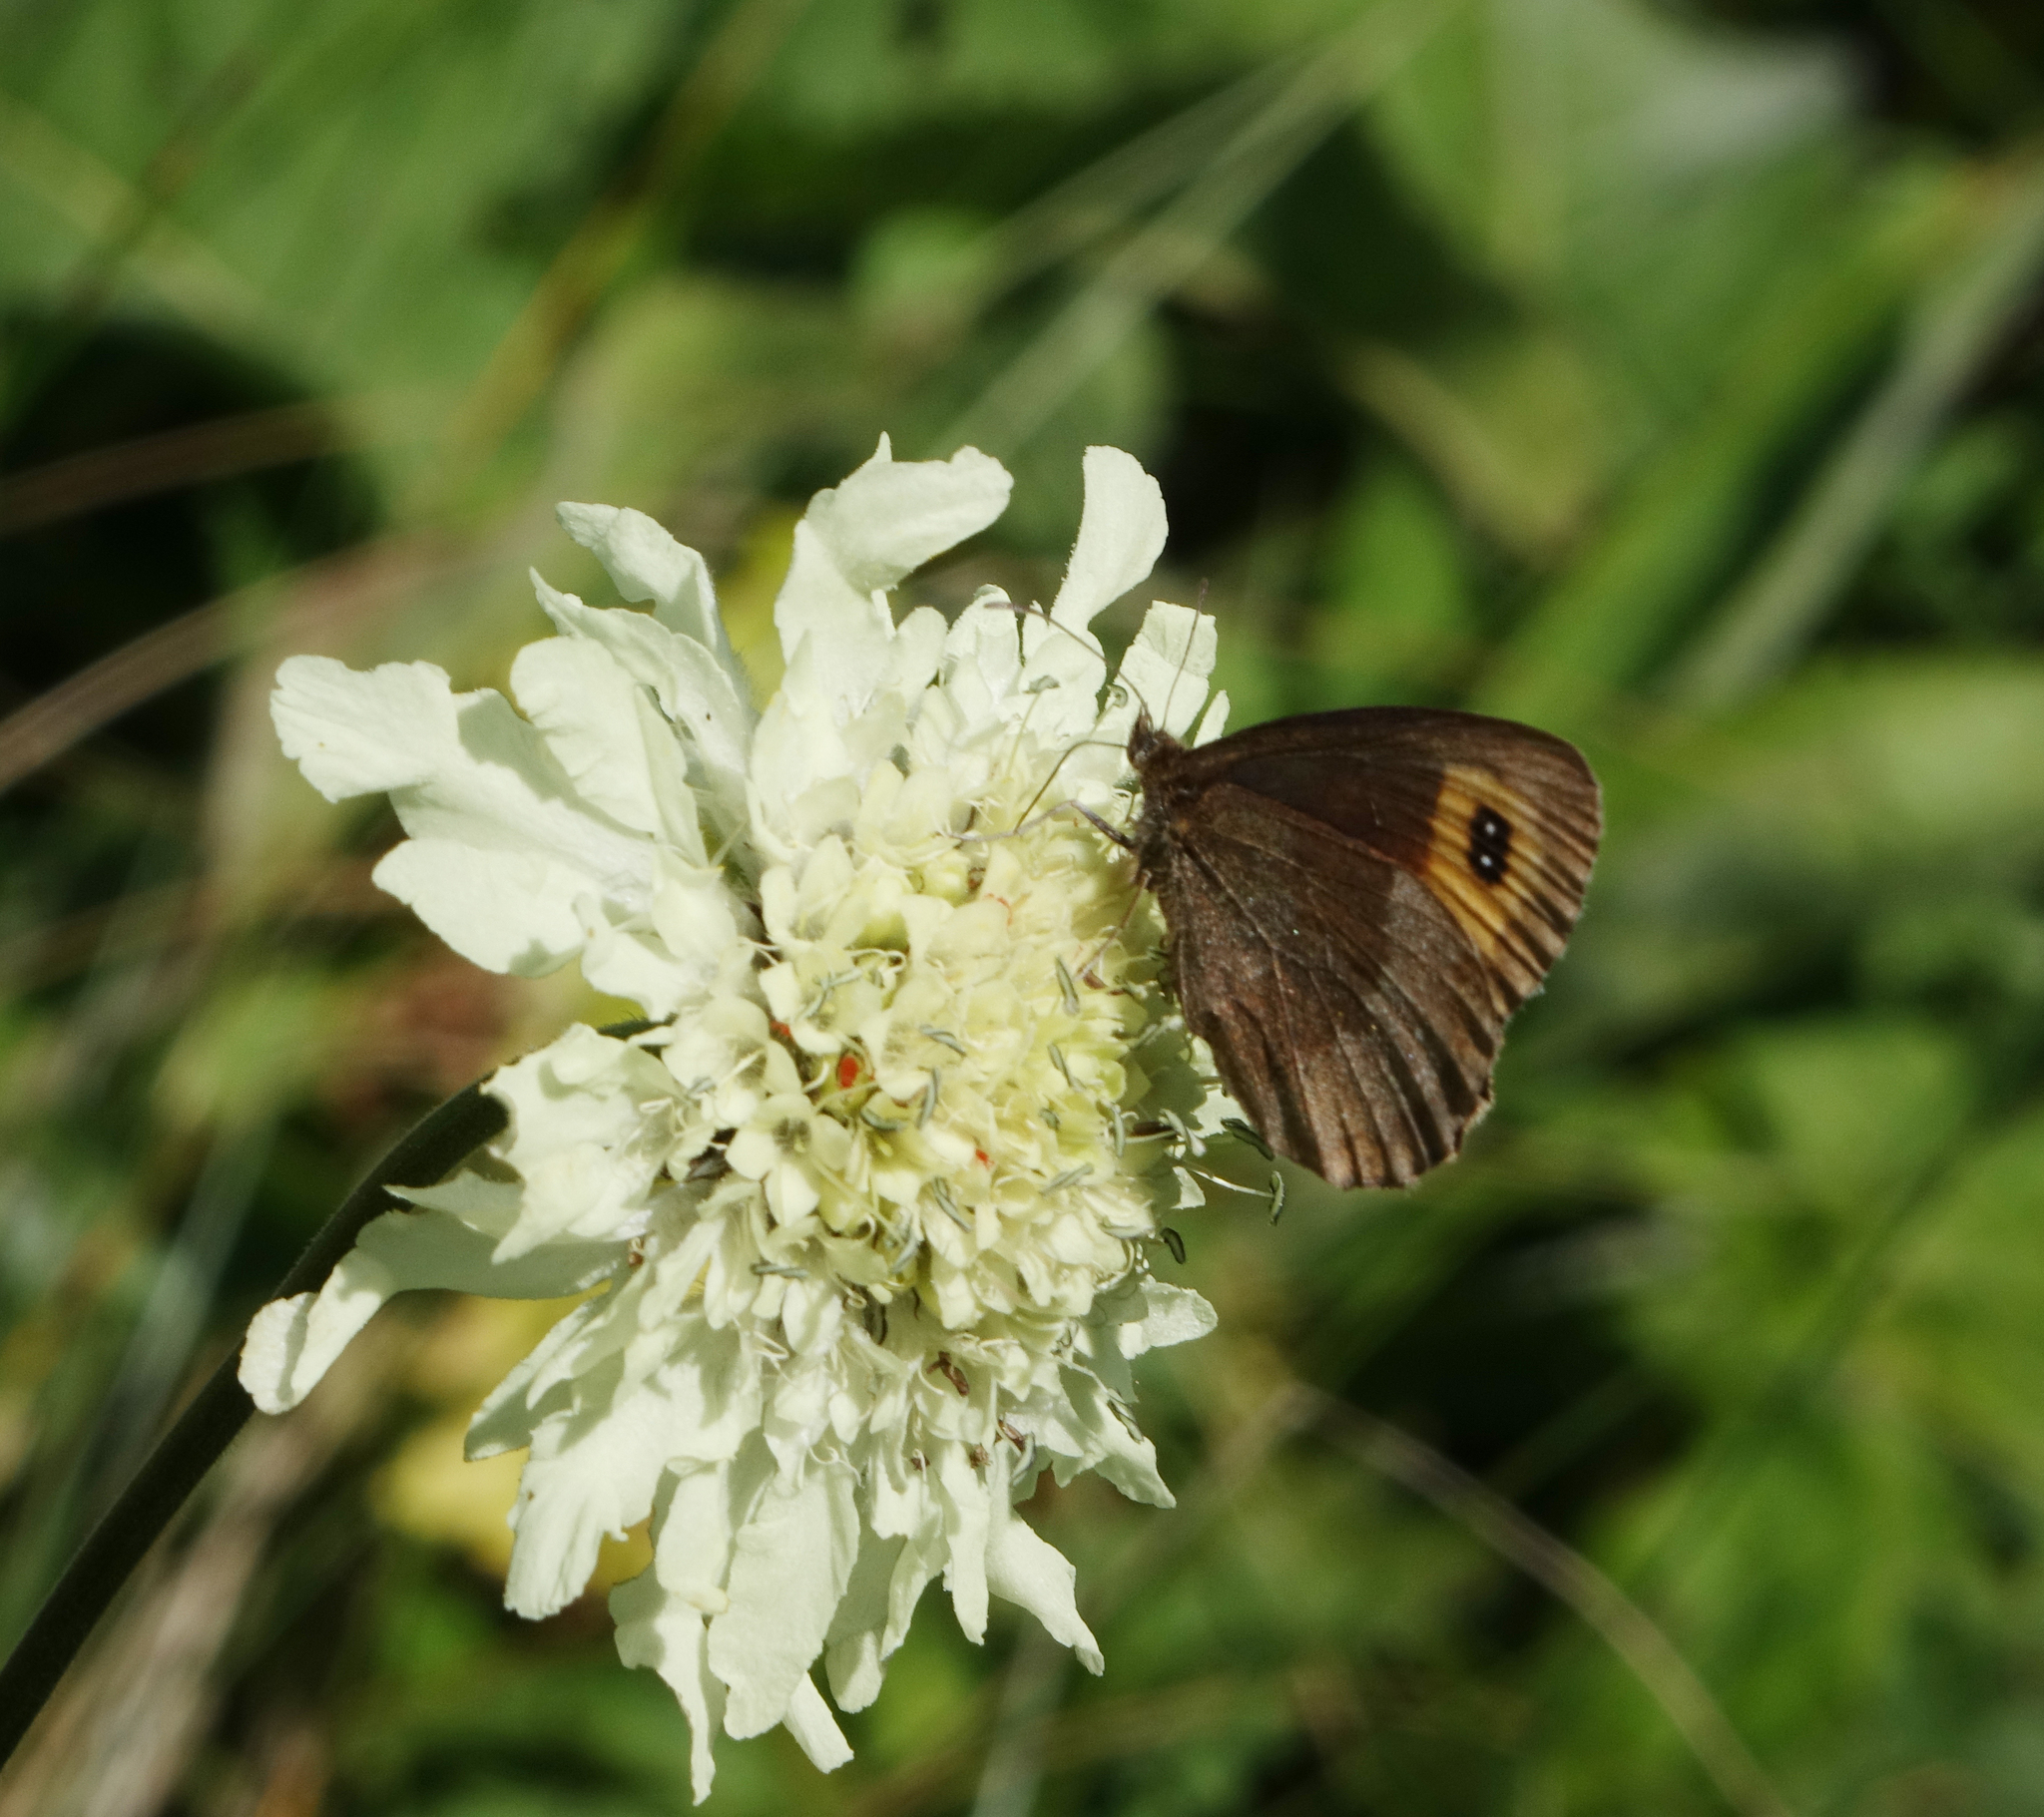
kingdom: Animalia
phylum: Arthropoda
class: Insecta
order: Lepidoptera
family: Nymphalidae
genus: Erebia
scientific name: Erebia aethiops
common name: Scotch argus
